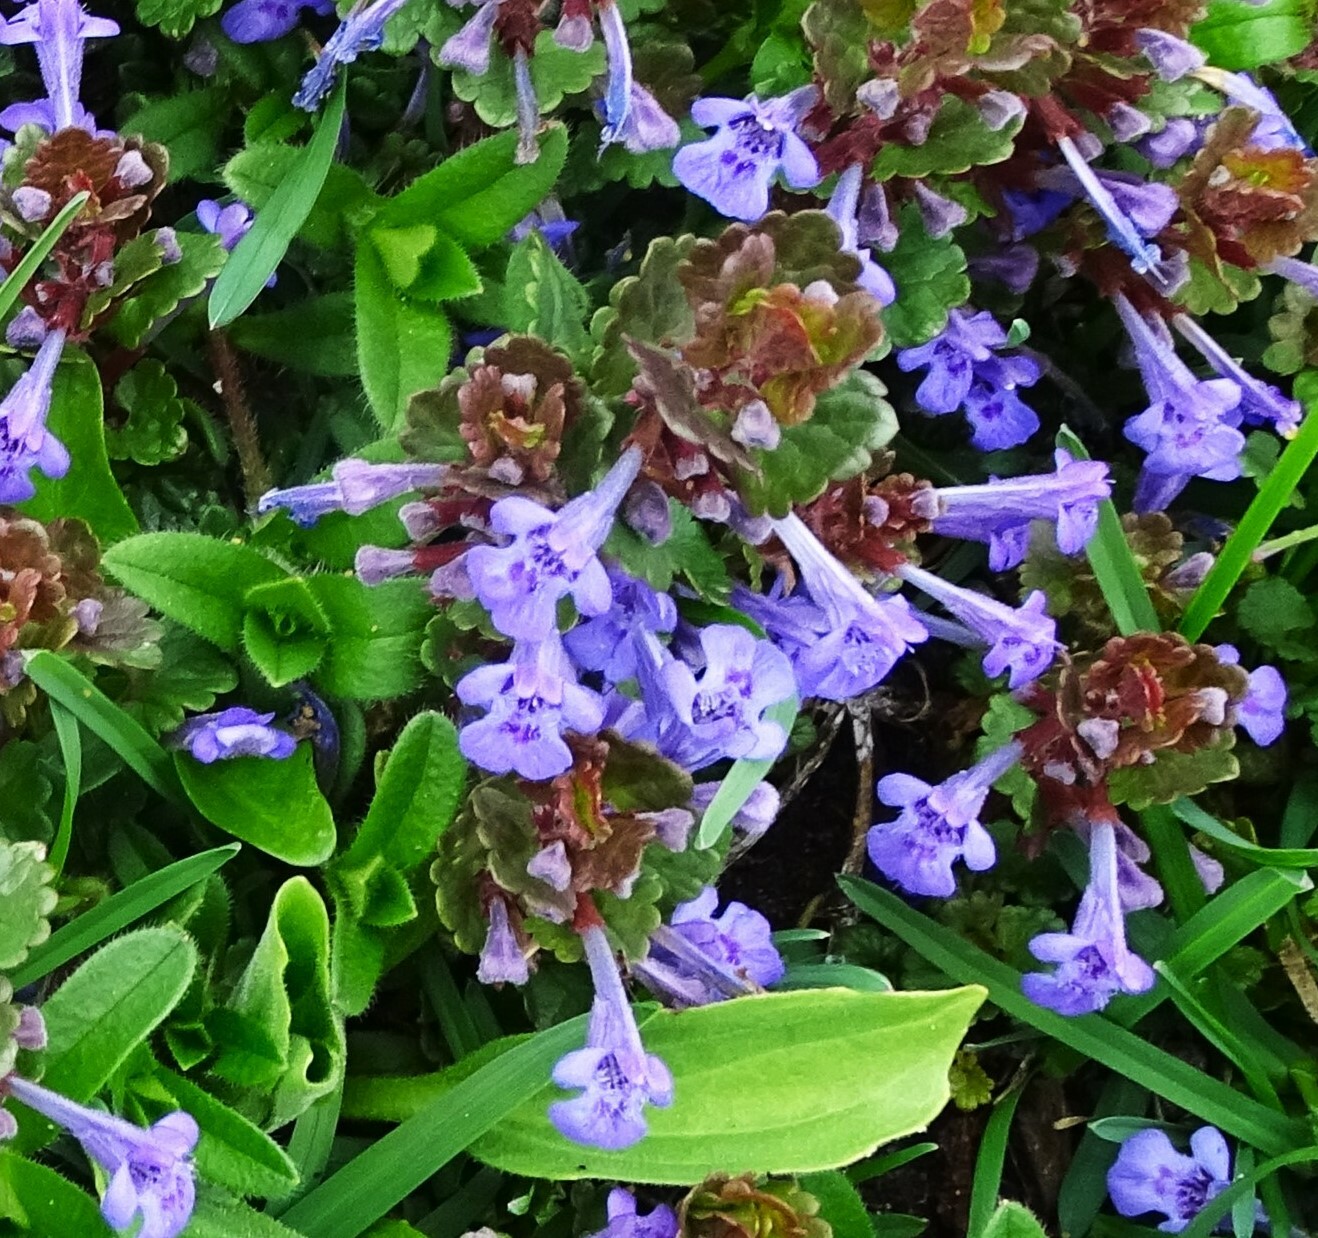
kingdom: Plantae
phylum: Tracheophyta
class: Magnoliopsida
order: Lamiales
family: Lamiaceae
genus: Glechoma
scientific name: Glechoma hederacea
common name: Ground ivy
